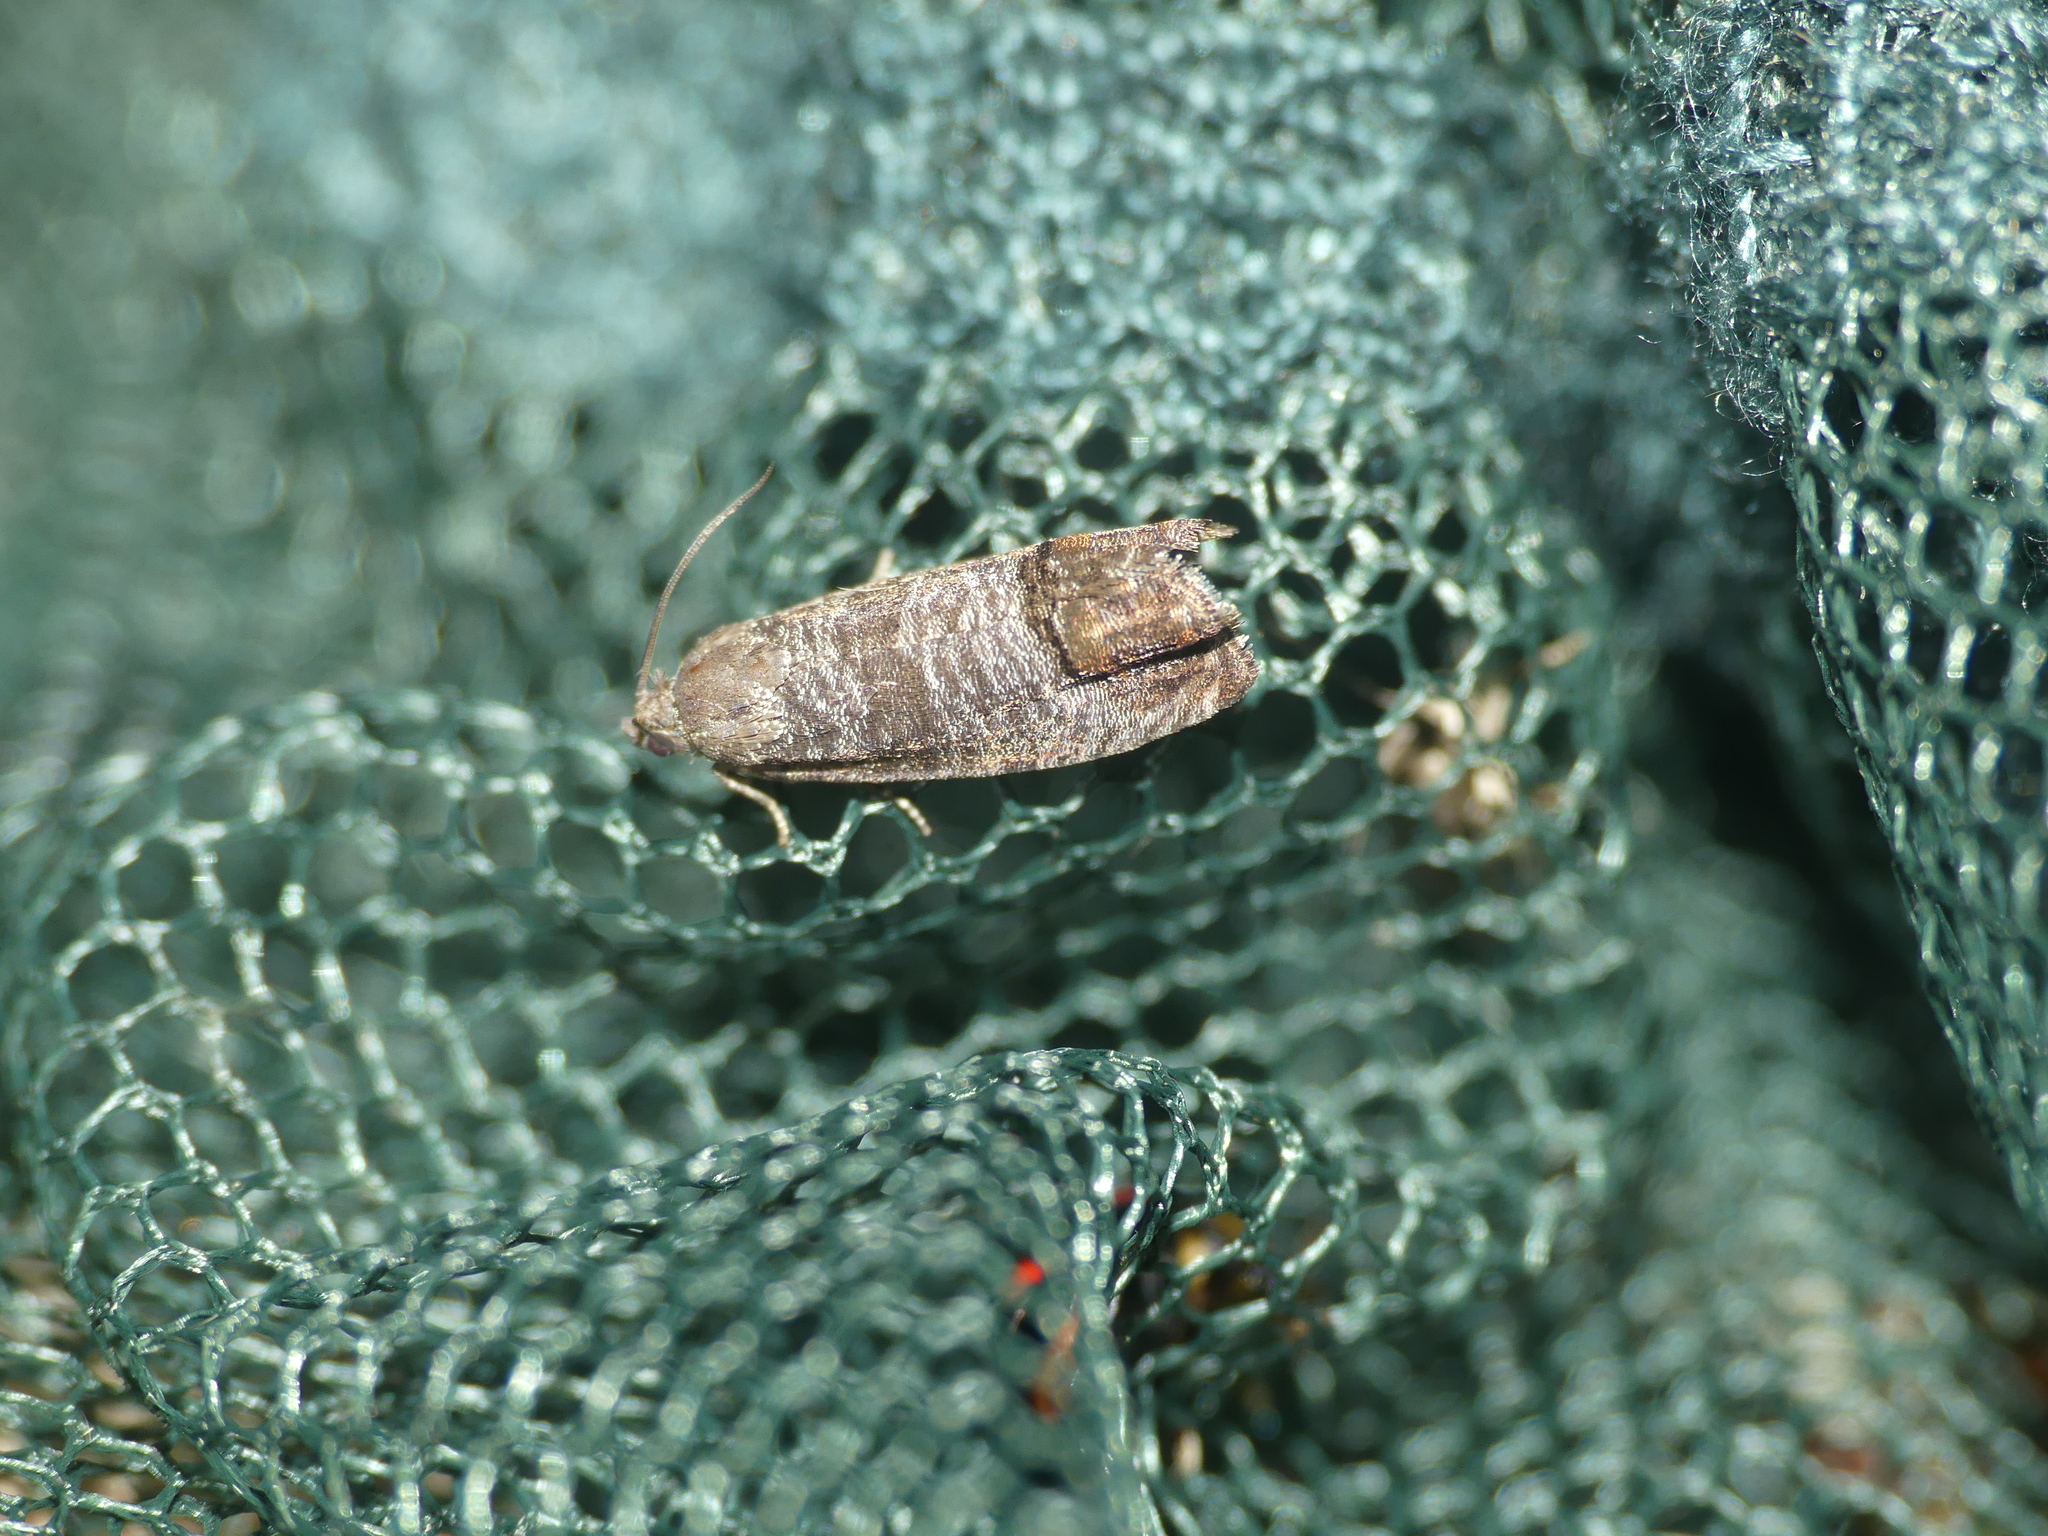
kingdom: Animalia
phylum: Arthropoda
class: Insecta
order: Lepidoptera
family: Tortricidae
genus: Cydia
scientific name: Cydia pomonella
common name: Codling moth
